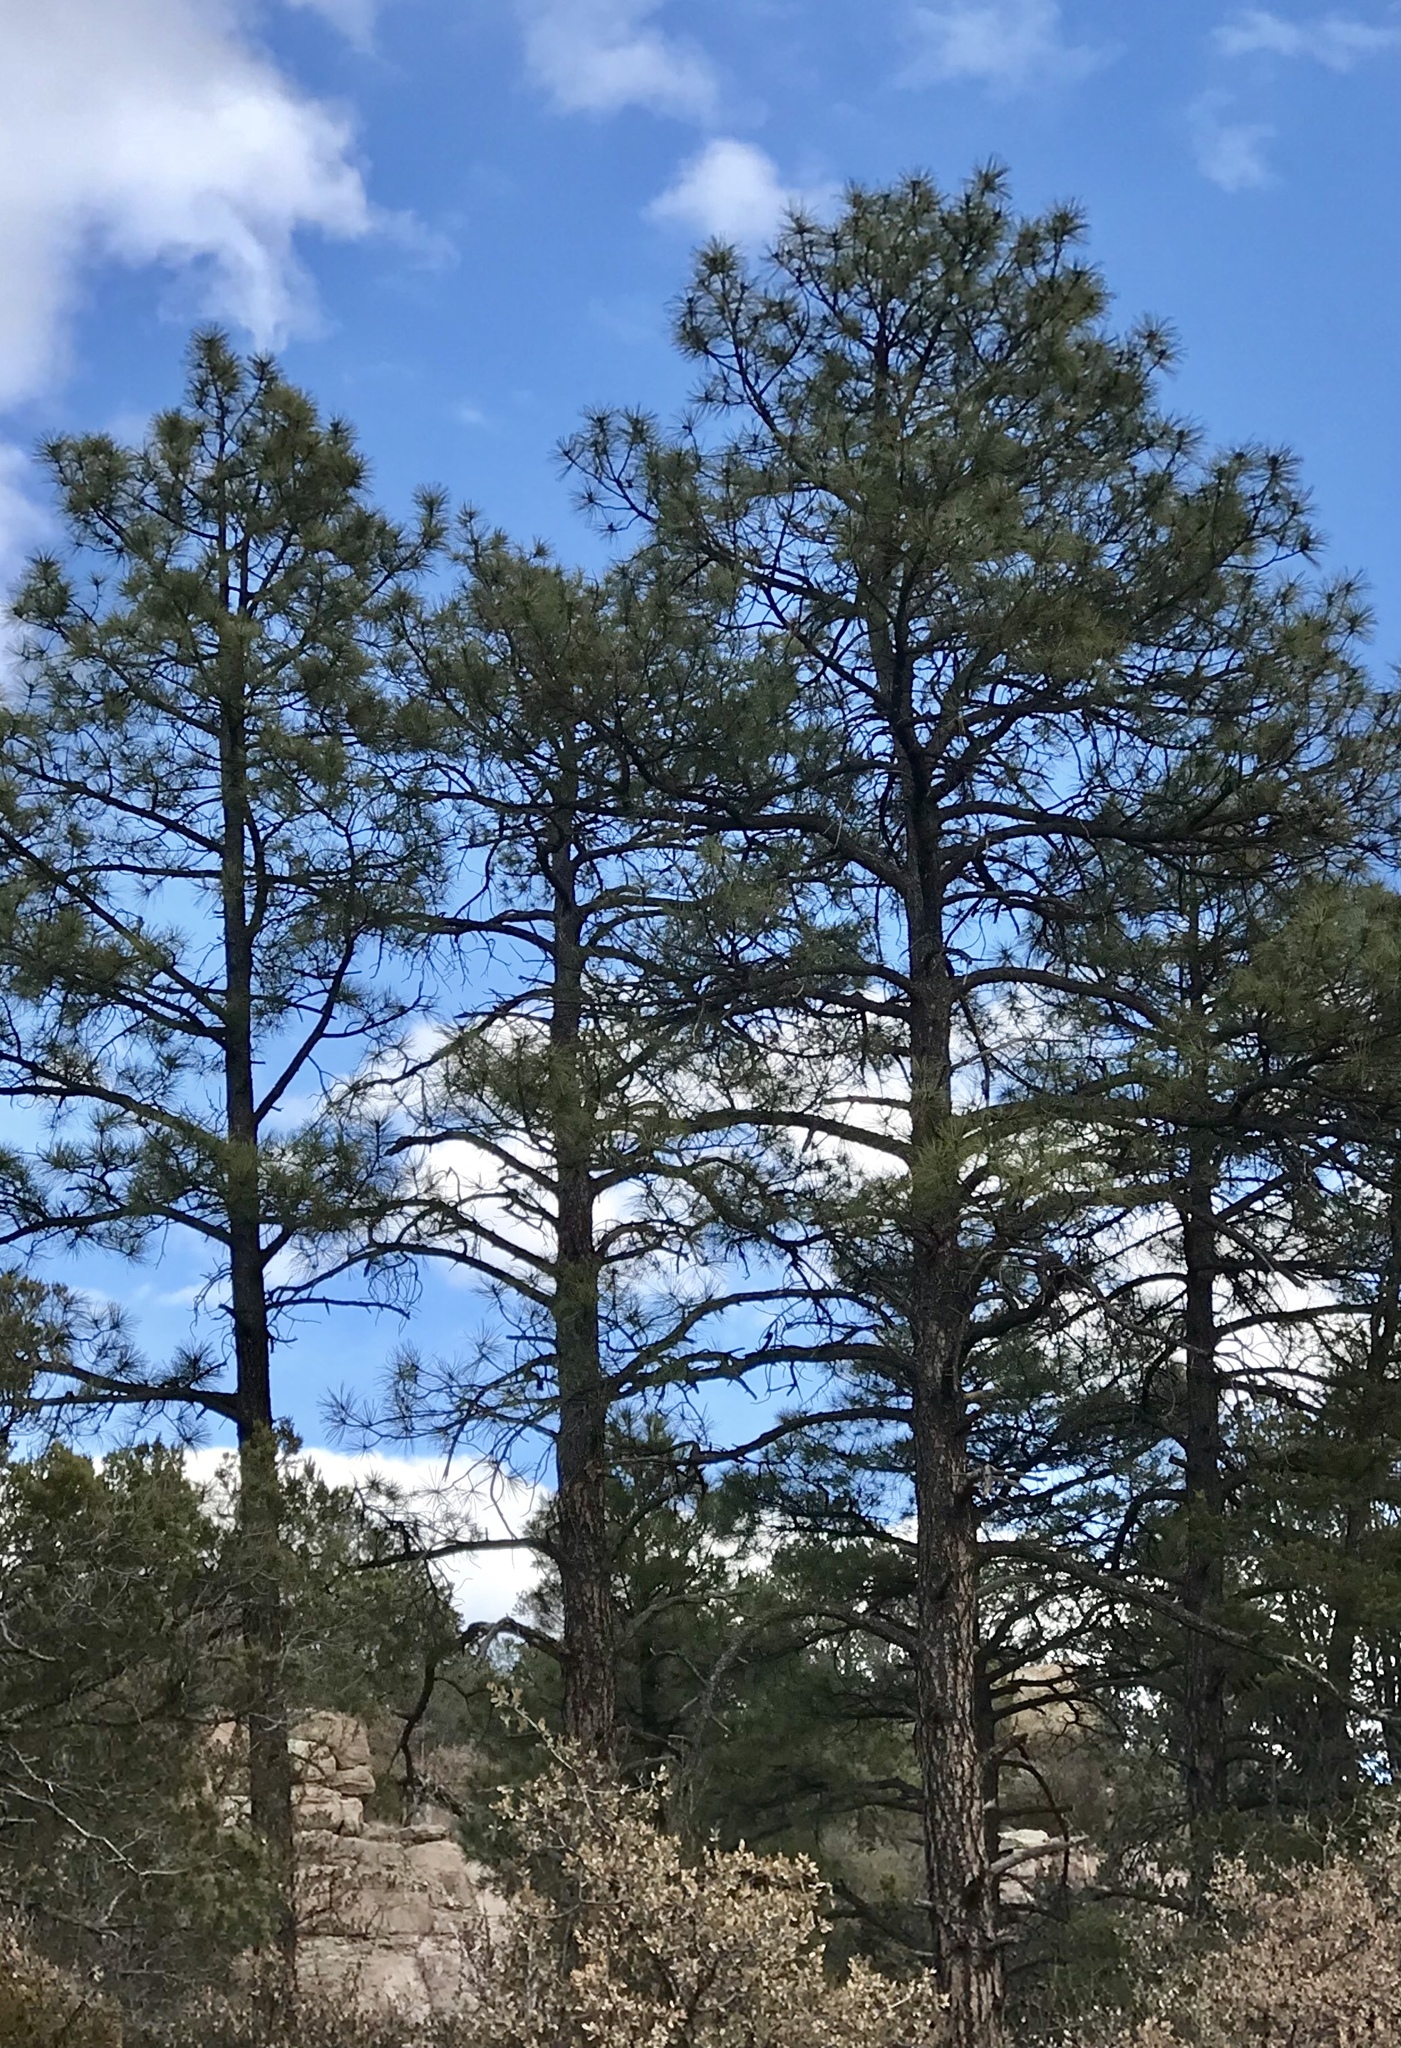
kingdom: Plantae
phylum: Tracheophyta
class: Pinopsida
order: Pinales
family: Pinaceae
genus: Pinus
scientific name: Pinus ponderosa
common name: Western yellow-pine
